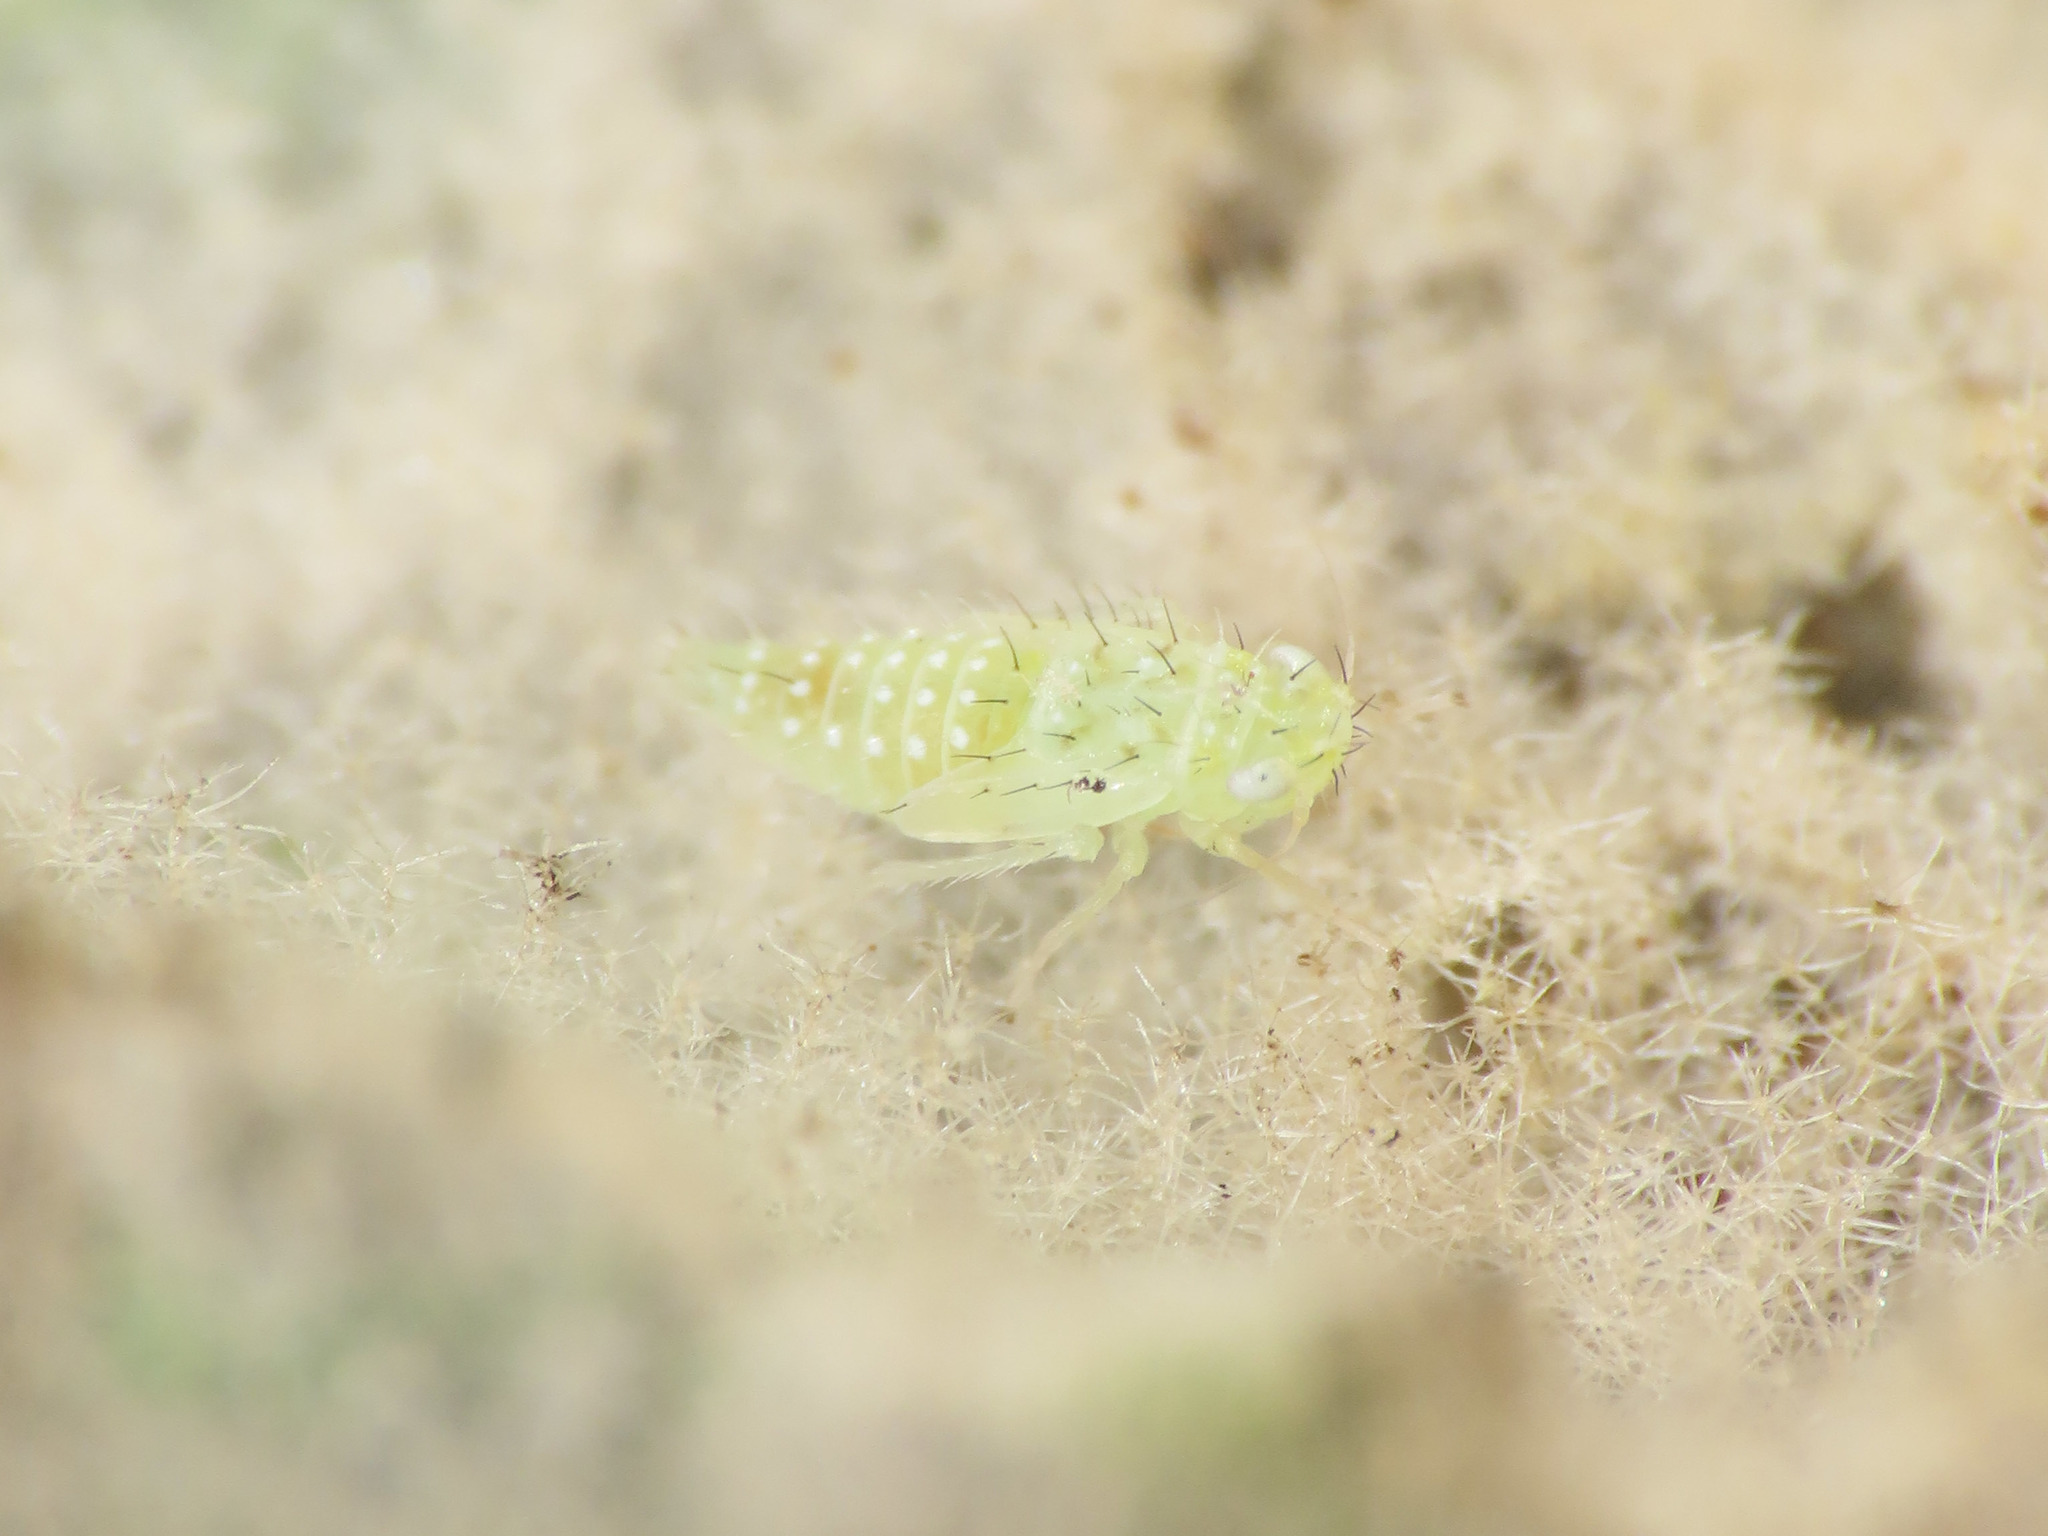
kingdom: Animalia
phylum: Arthropoda
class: Insecta
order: Hemiptera
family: Cicadellidae
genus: Micantulina
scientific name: Micantulina stigmatipennis
